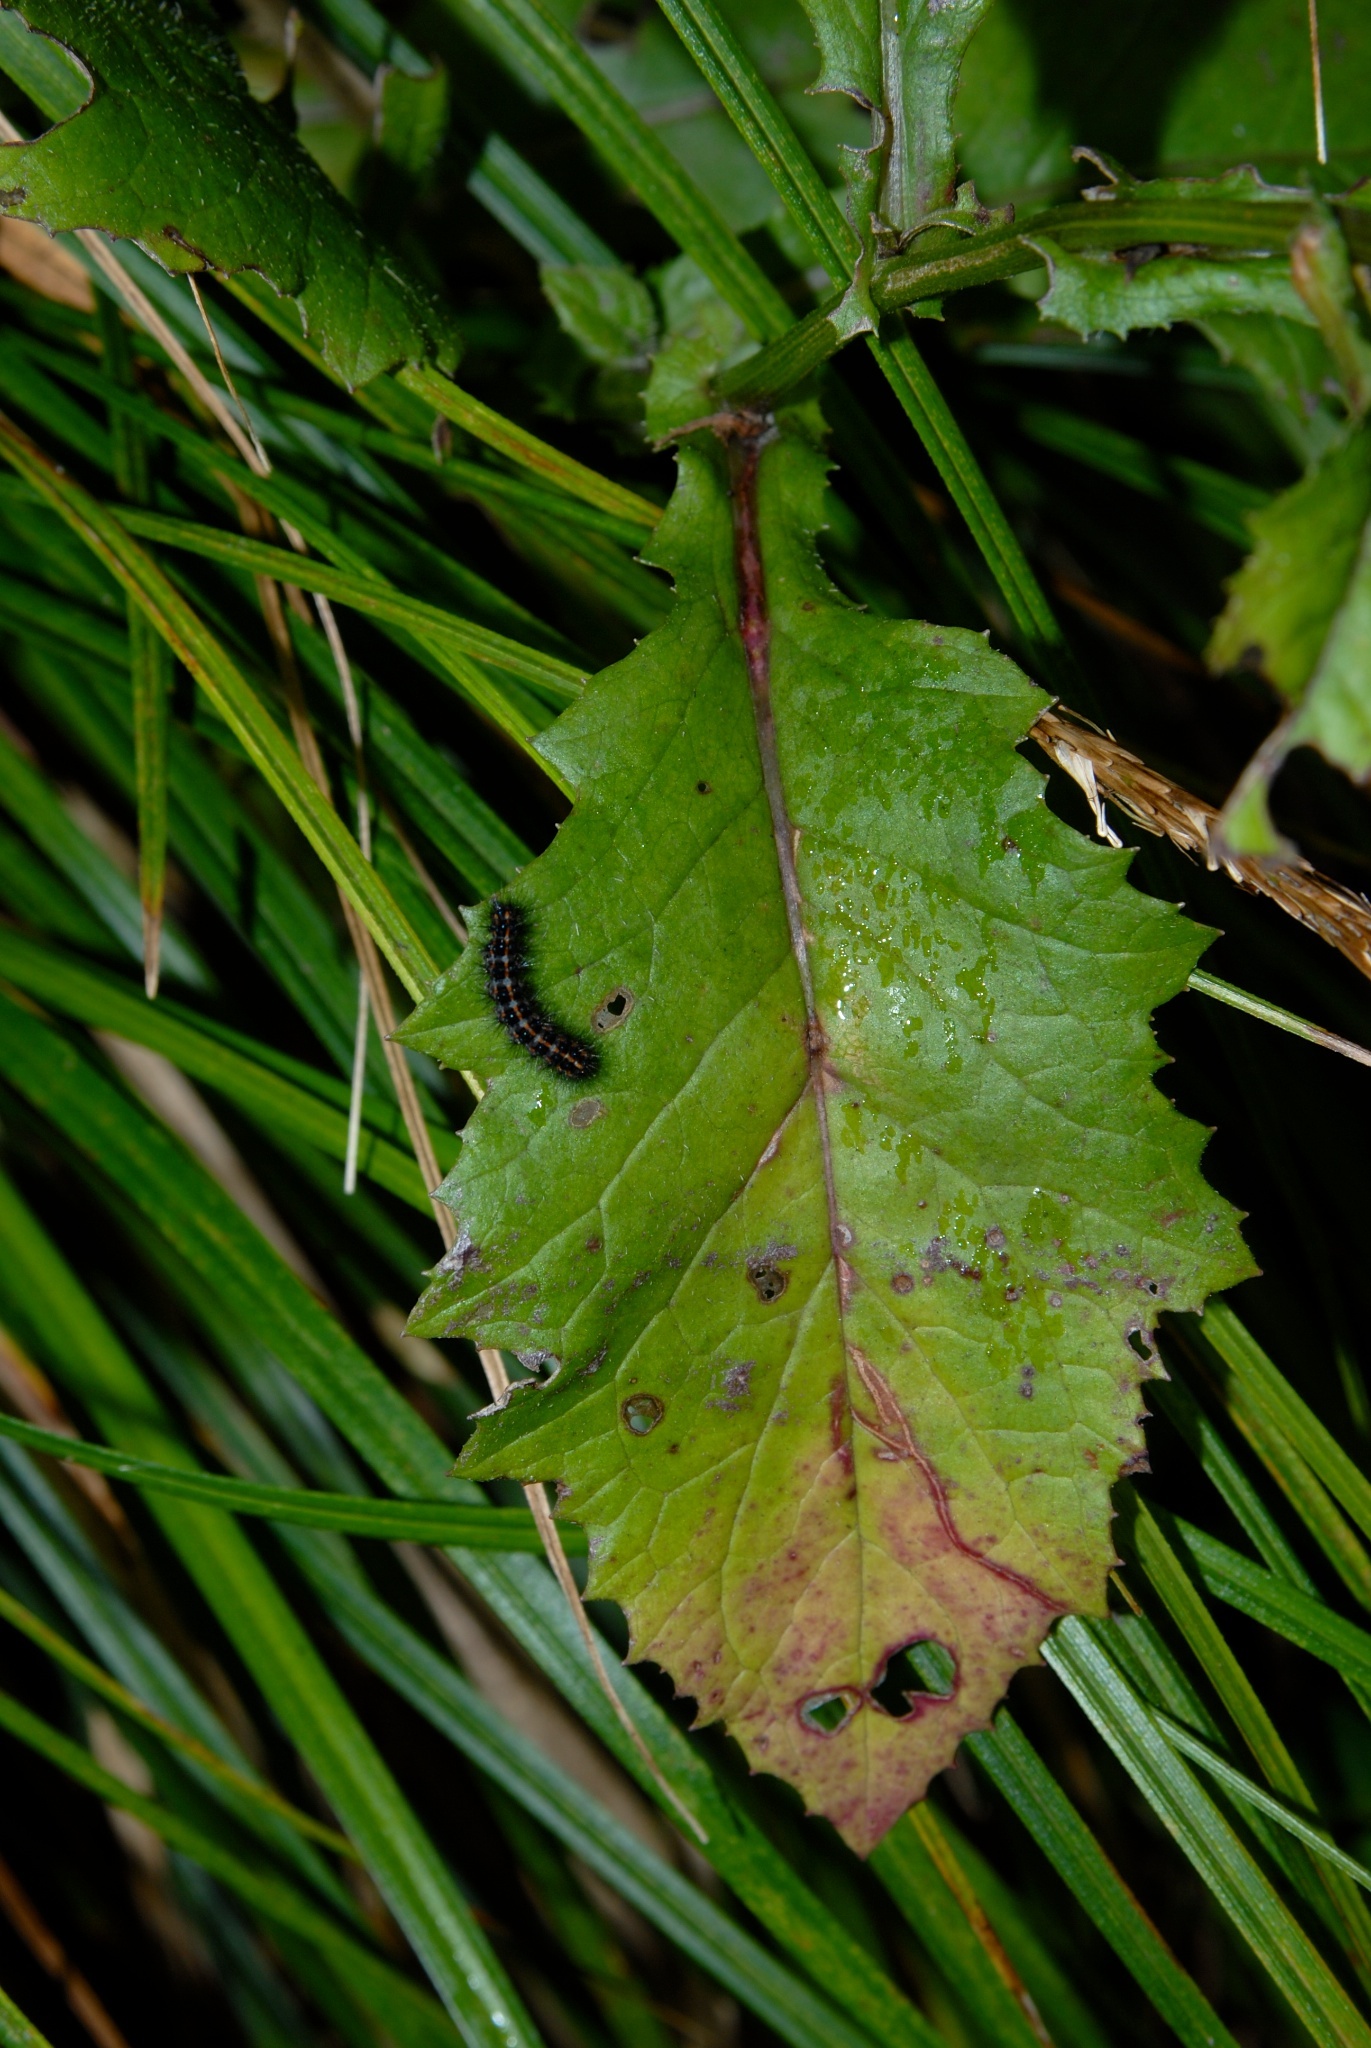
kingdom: Plantae
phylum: Tracheophyta
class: Magnoliopsida
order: Asterales
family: Asteraceae
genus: Senecio
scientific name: Senecio rufiglandulosus
